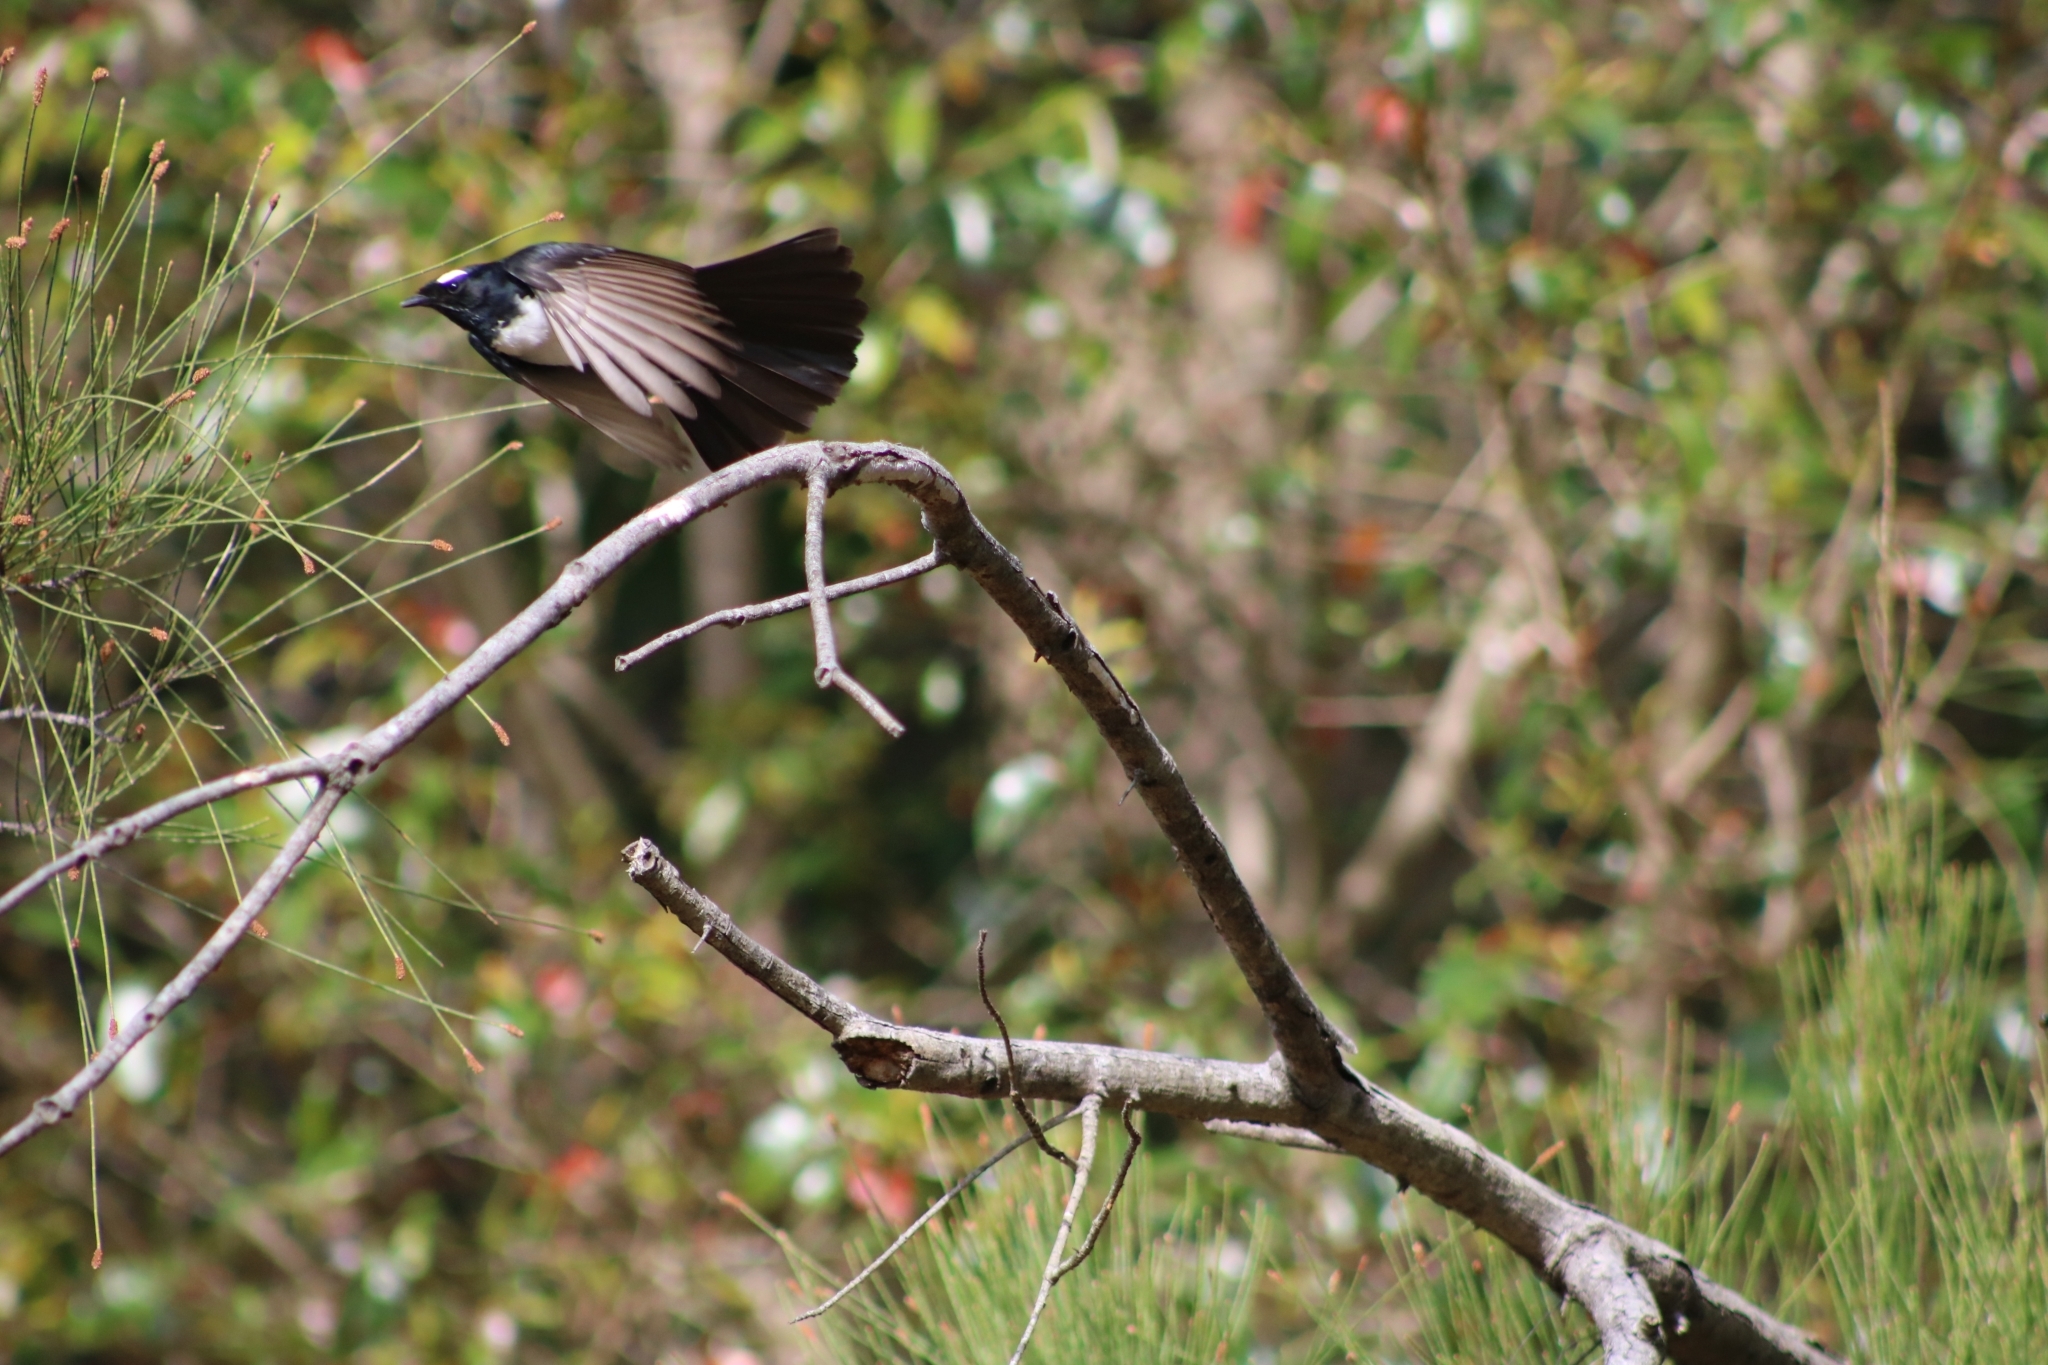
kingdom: Animalia
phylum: Chordata
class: Aves
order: Passeriformes
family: Rhipiduridae
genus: Rhipidura
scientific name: Rhipidura leucophrys
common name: Willie wagtail
